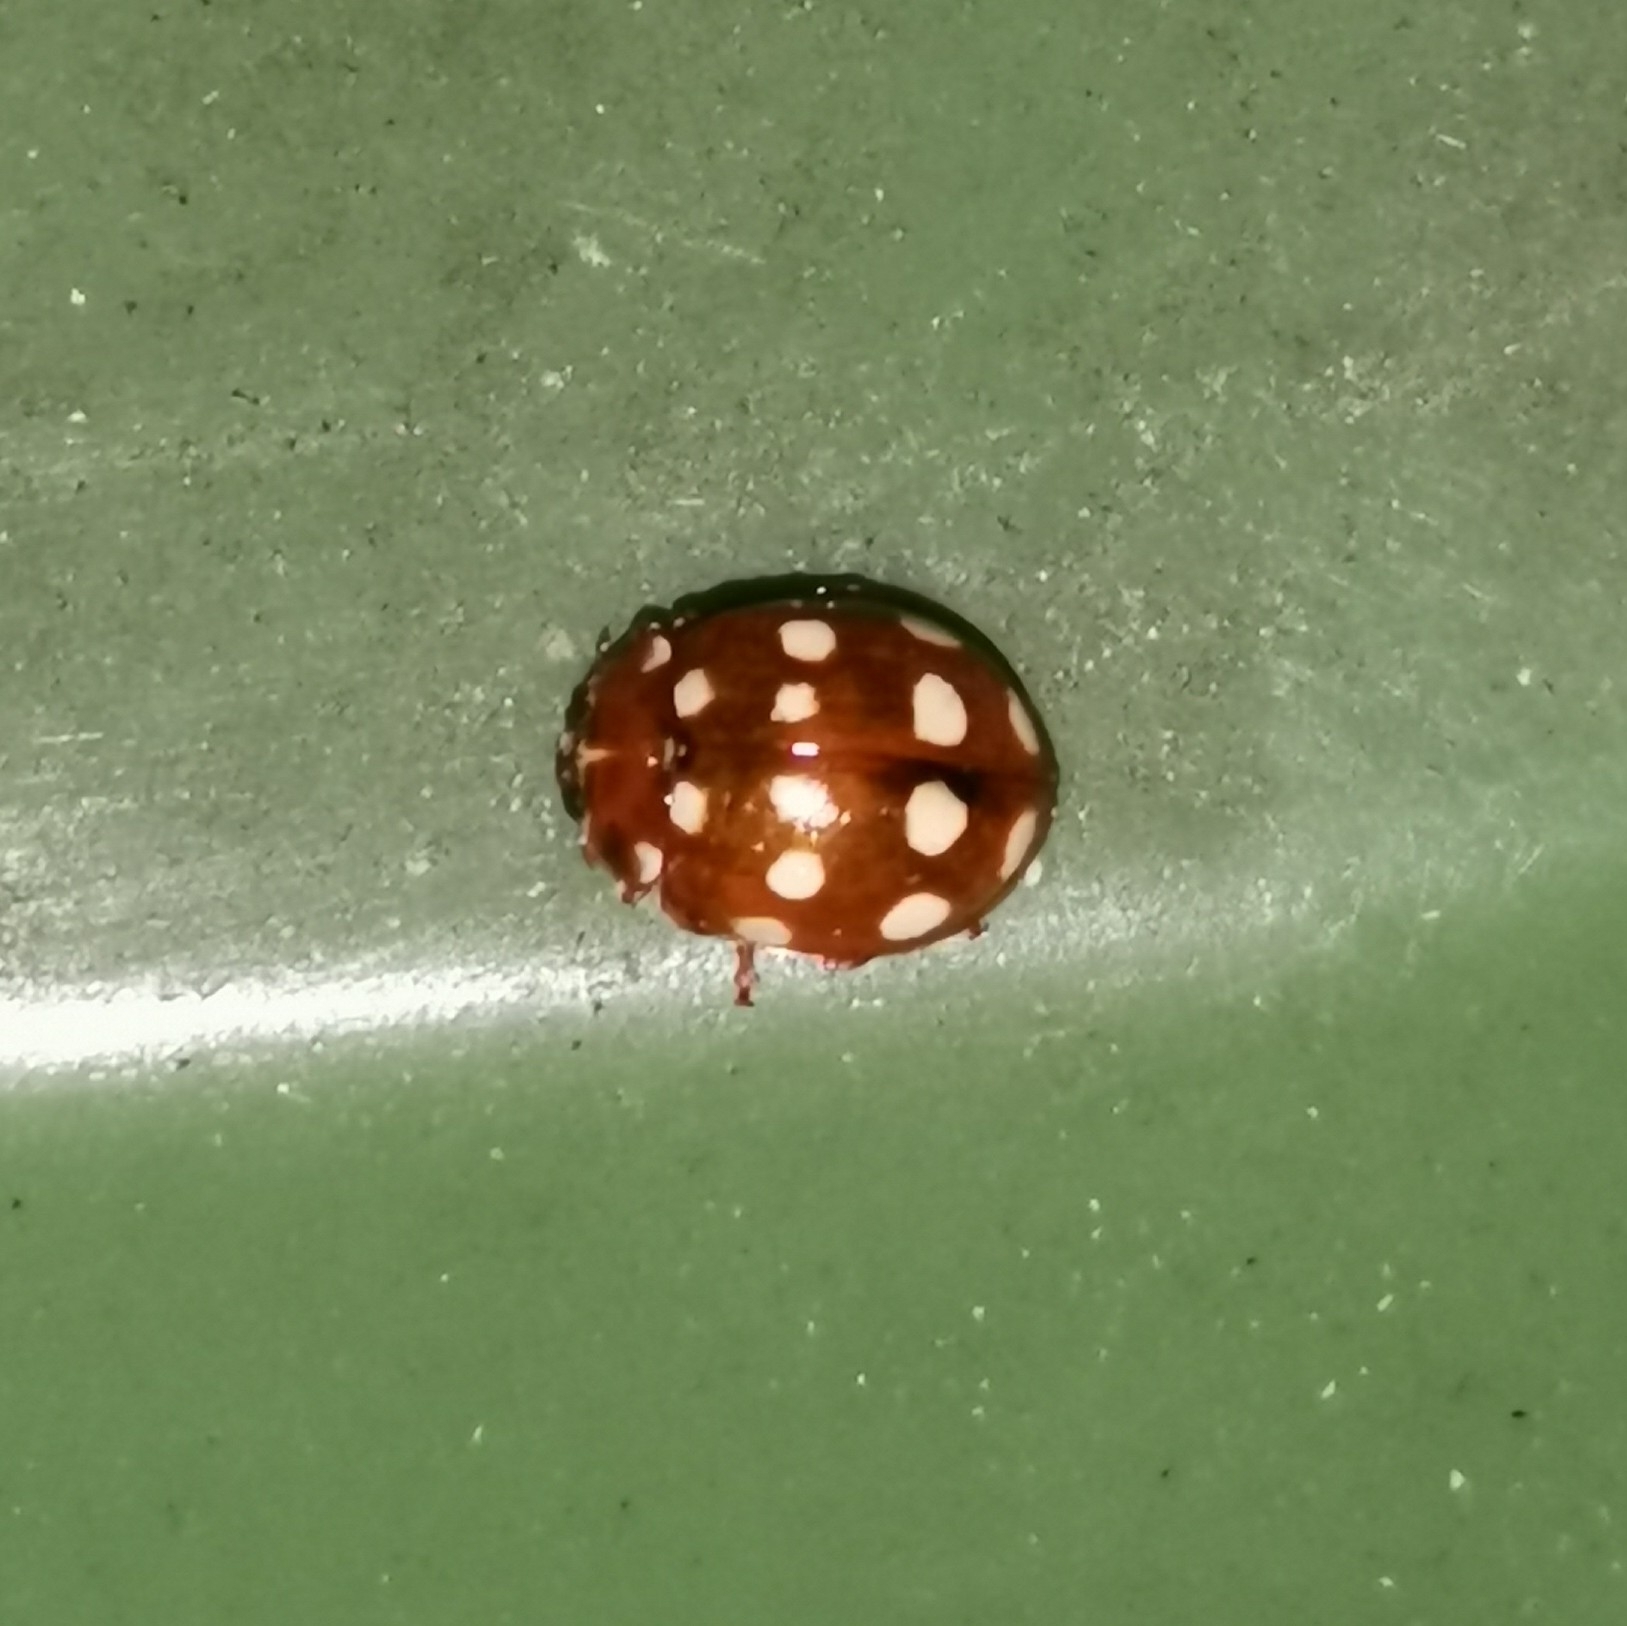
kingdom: Animalia
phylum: Arthropoda
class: Insecta
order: Coleoptera
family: Coccinellidae
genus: Calvia
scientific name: Calvia quatuordecimguttata
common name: Cream-spot ladybird
